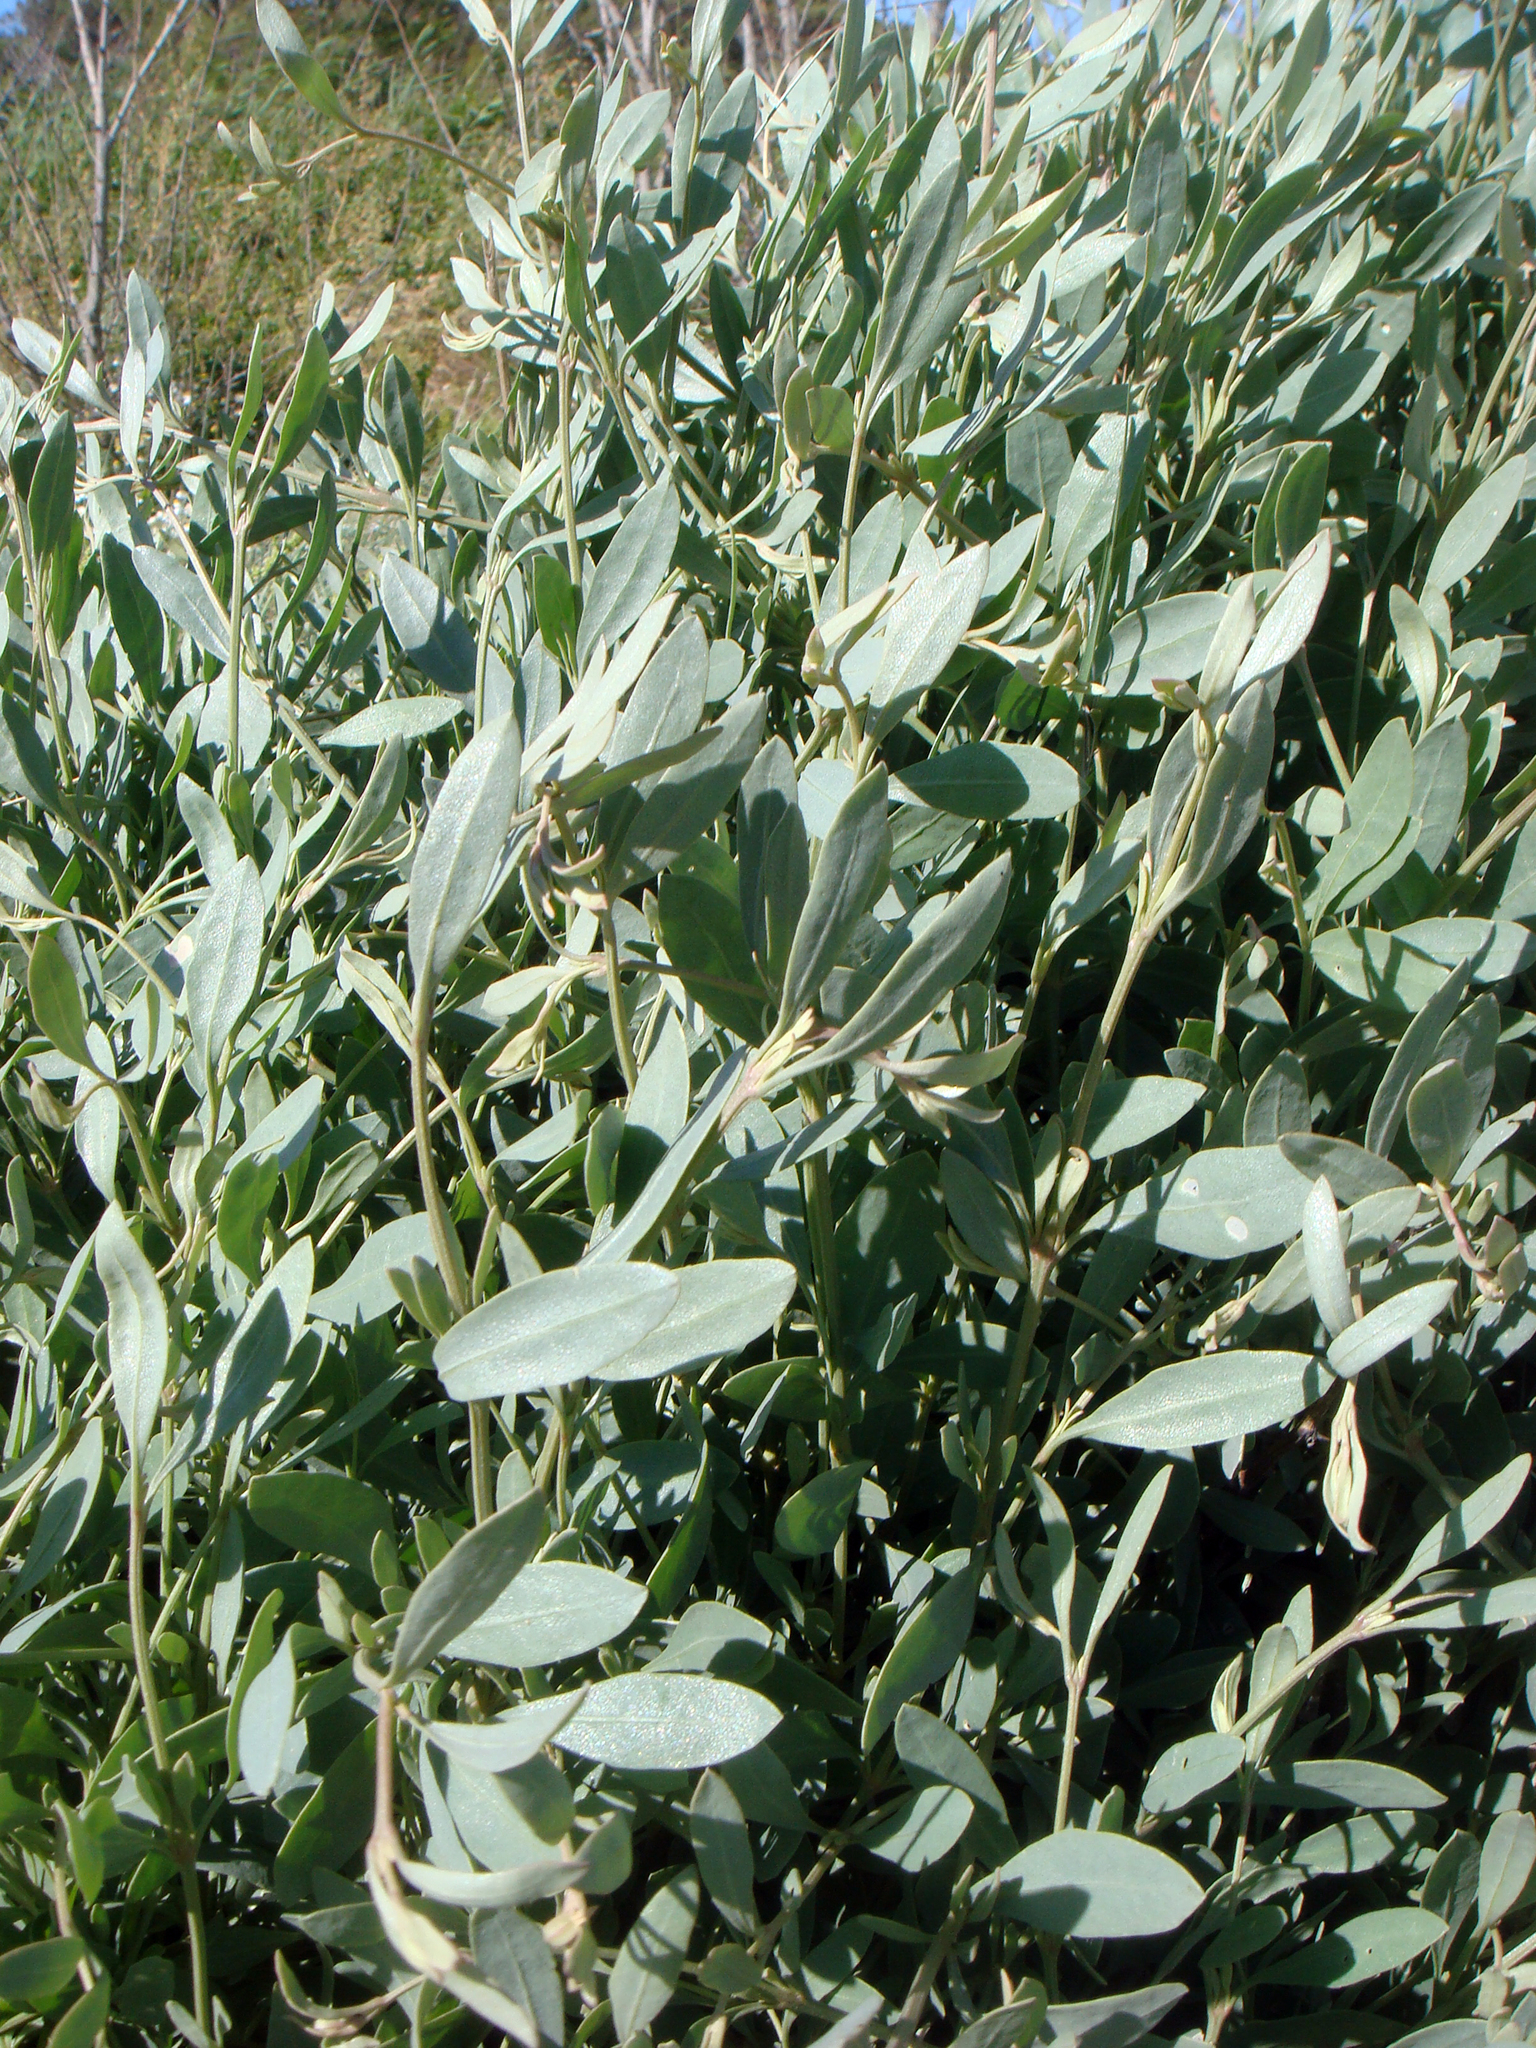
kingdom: Plantae
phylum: Tracheophyta
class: Magnoliopsida
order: Caryophyllales
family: Amaranthaceae
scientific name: Amaranthaceae
